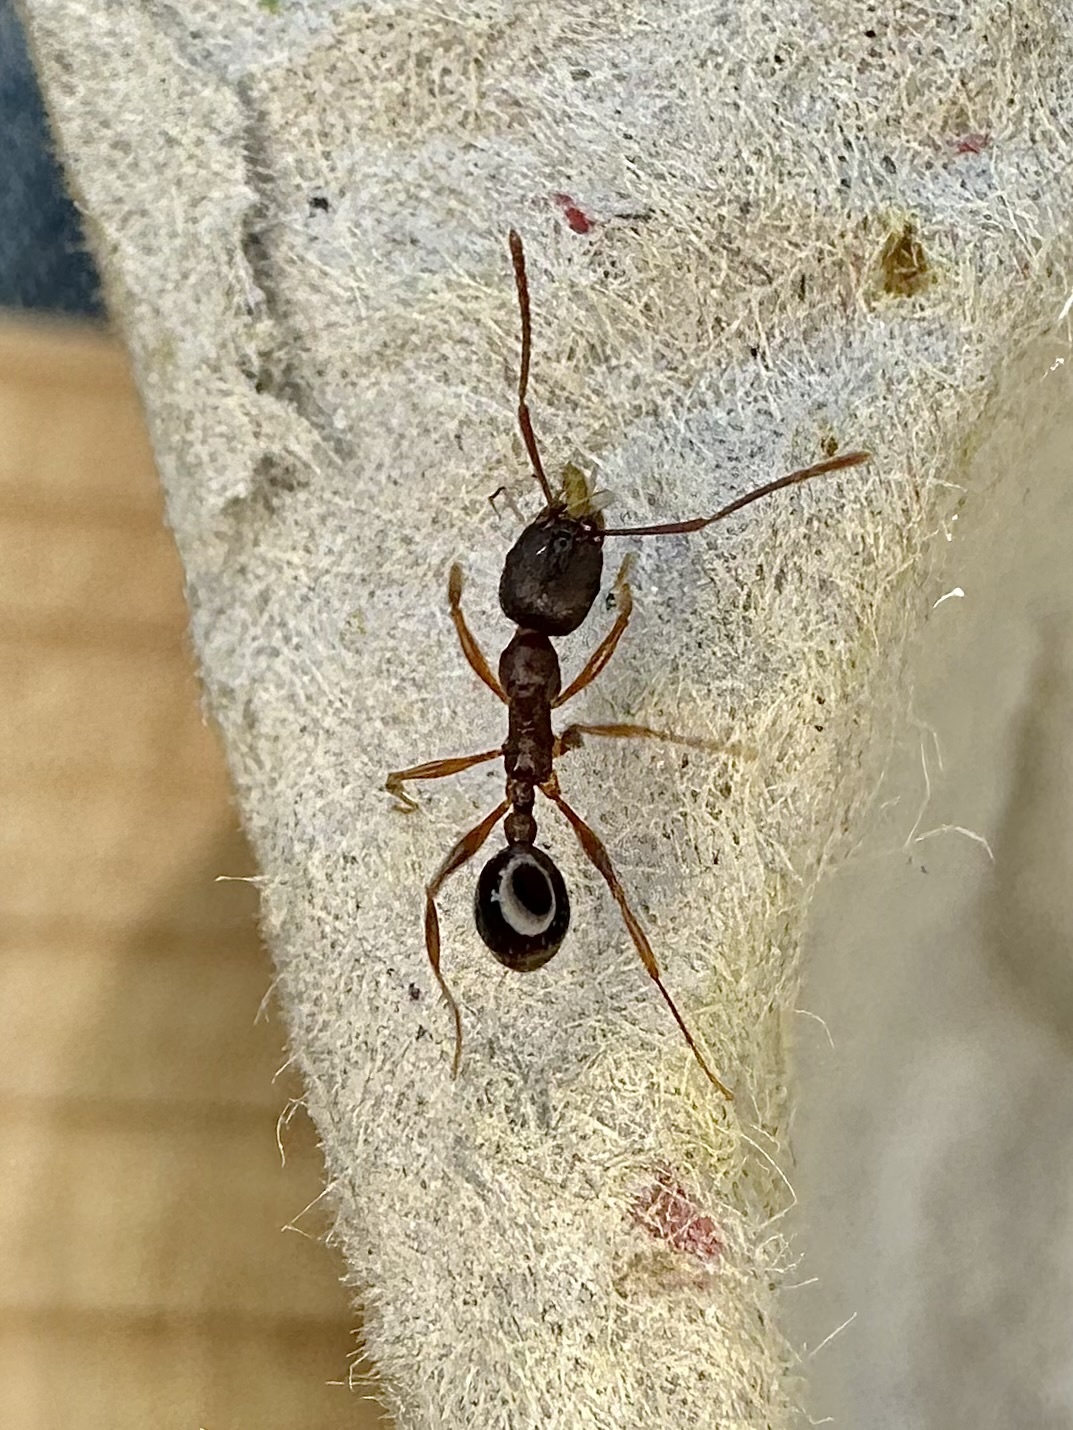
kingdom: Animalia
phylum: Arthropoda
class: Insecta
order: Hymenoptera
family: Formicidae
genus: Aphaenogaster
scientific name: Aphaenogaster rudis
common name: Winnow ant
